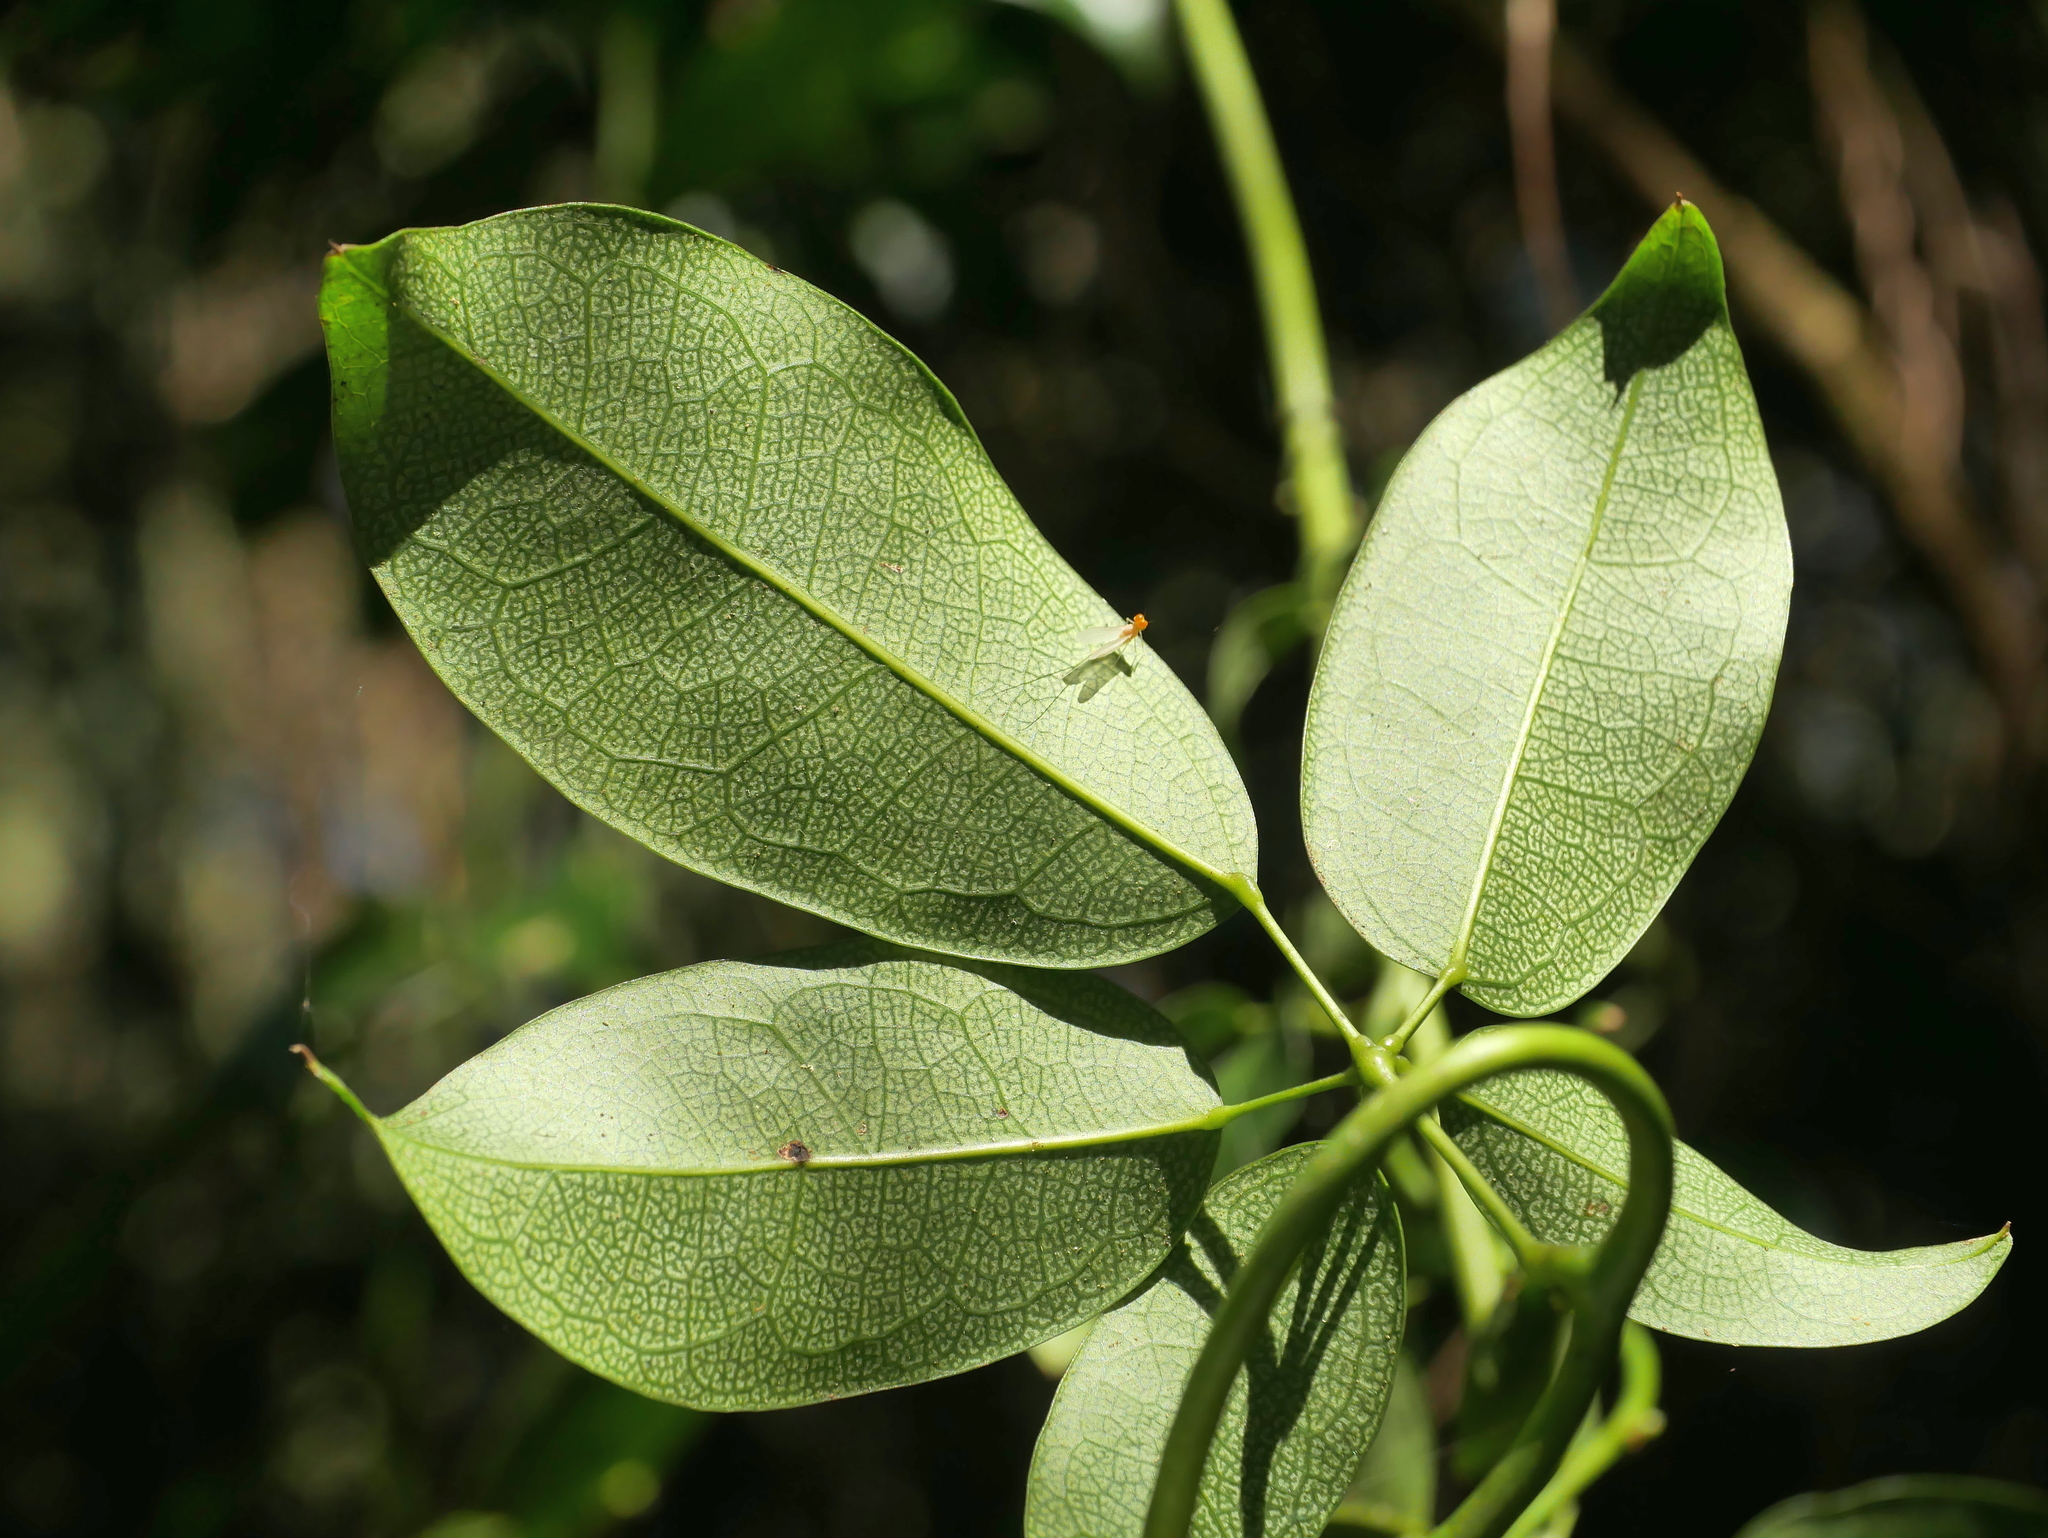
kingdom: Plantae
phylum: Tracheophyta
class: Magnoliopsida
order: Ranunculales
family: Lardizabalaceae
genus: Stauntonia
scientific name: Stauntonia obovatifoliola
